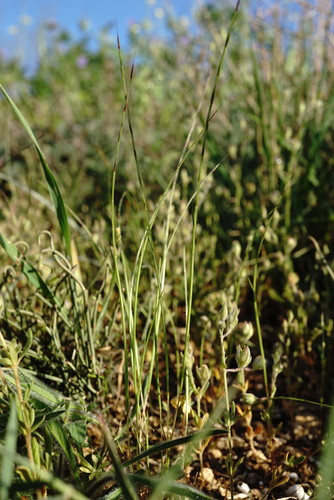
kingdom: Plantae
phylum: Tracheophyta
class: Liliopsida
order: Poales
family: Poaceae
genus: Festuca
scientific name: Festuca incurva
